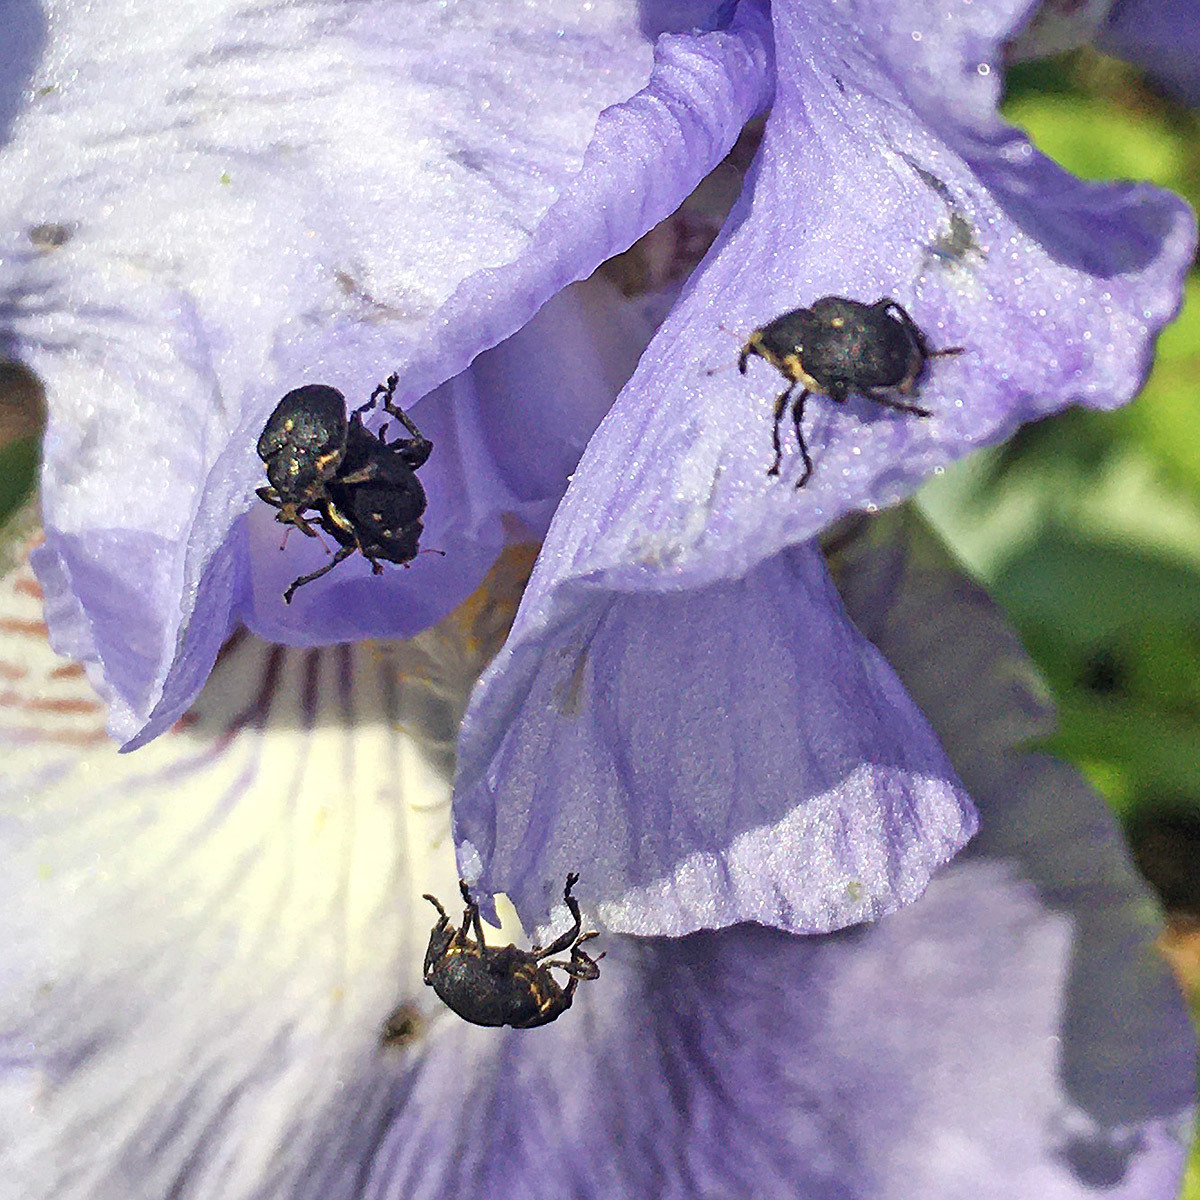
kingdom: Animalia
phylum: Arthropoda
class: Insecta
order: Coleoptera
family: Curculionidae
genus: Mononychus
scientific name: Mononychus punctumalbum
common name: Iris weevil
